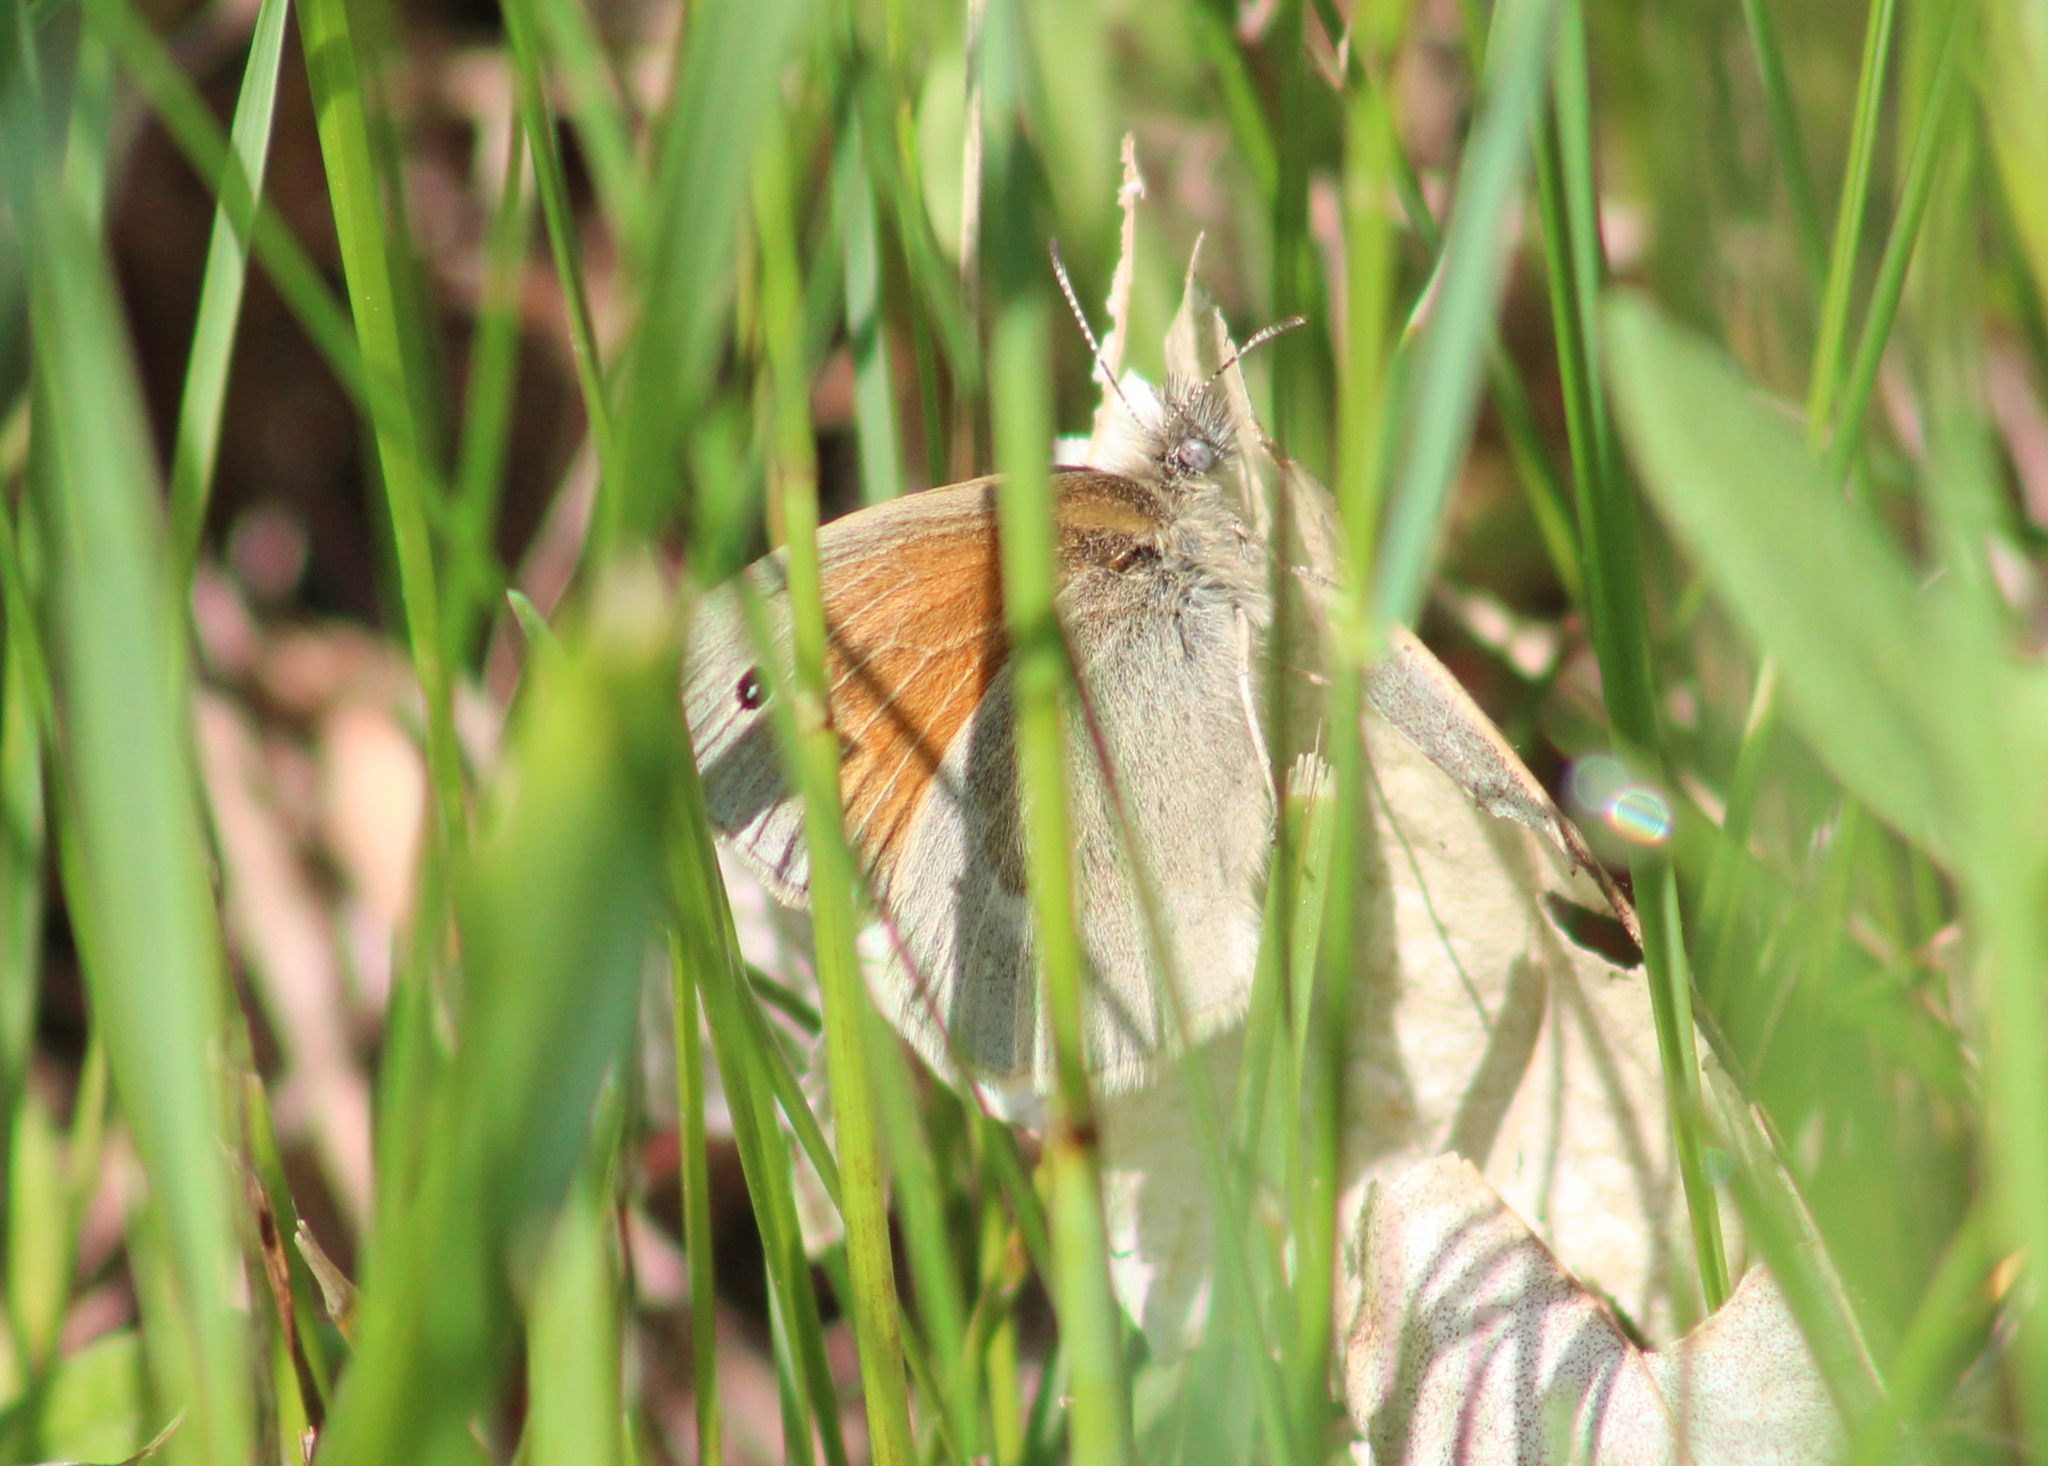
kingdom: Animalia
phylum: Arthropoda
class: Insecta
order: Lepidoptera
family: Nymphalidae
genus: Coenonympha
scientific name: Coenonympha california
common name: Common ringlet
